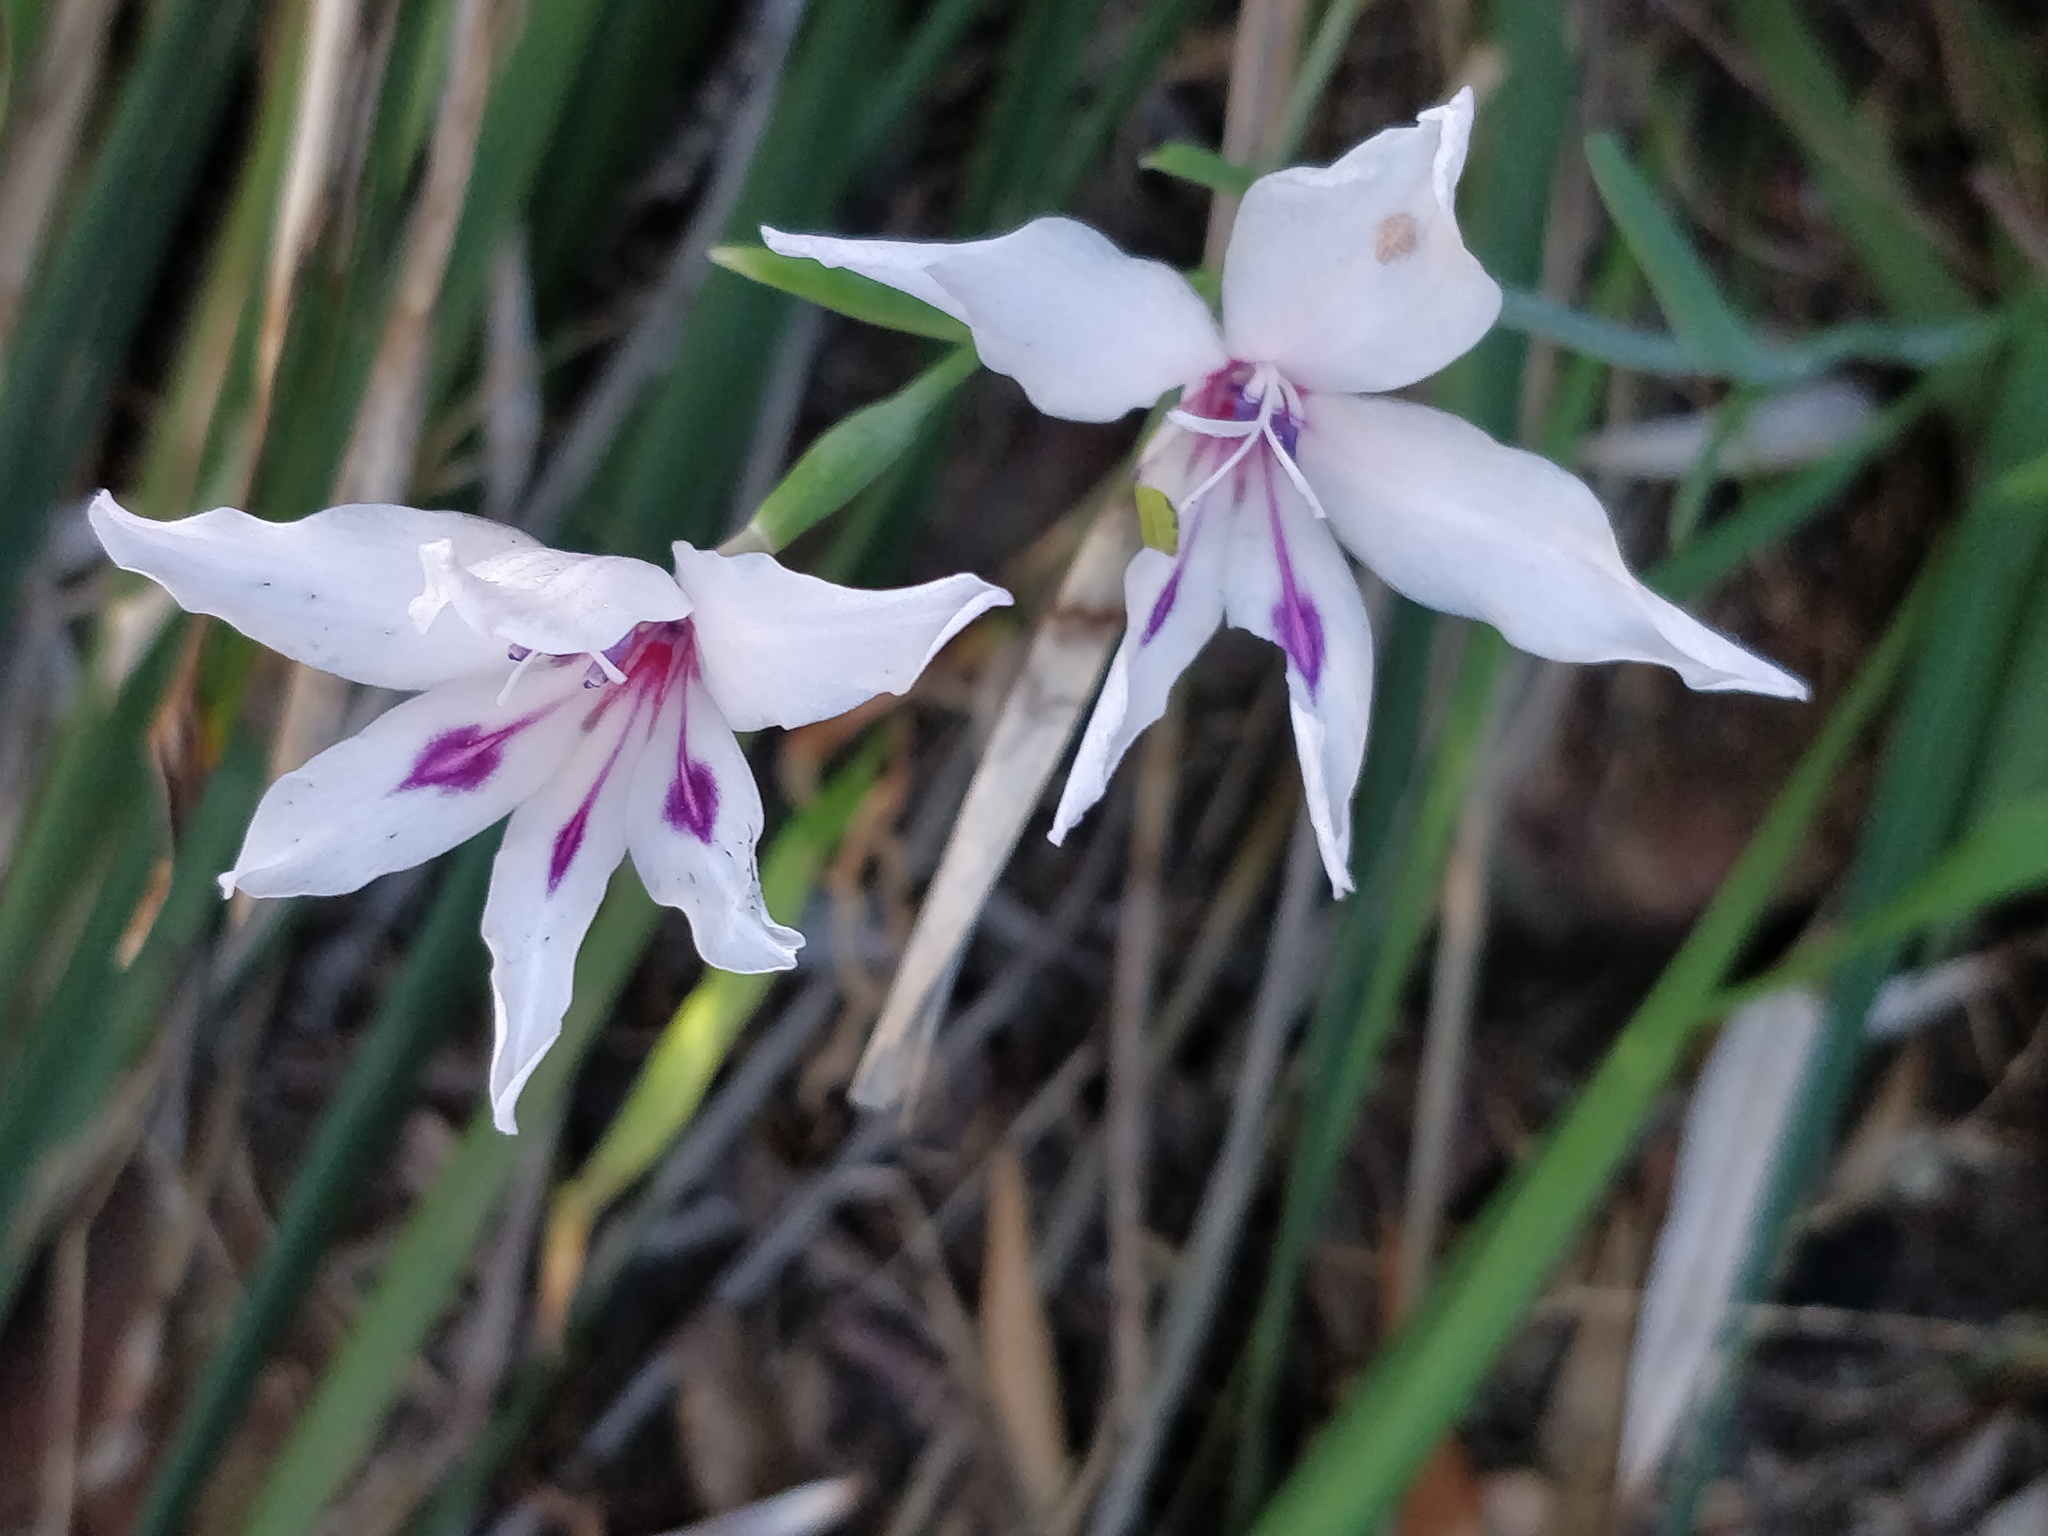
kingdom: Plantae
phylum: Tracheophyta
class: Liliopsida
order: Asparagales
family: Iridaceae
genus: Gladiolus
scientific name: Gladiolus carneus
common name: Painted-lady
